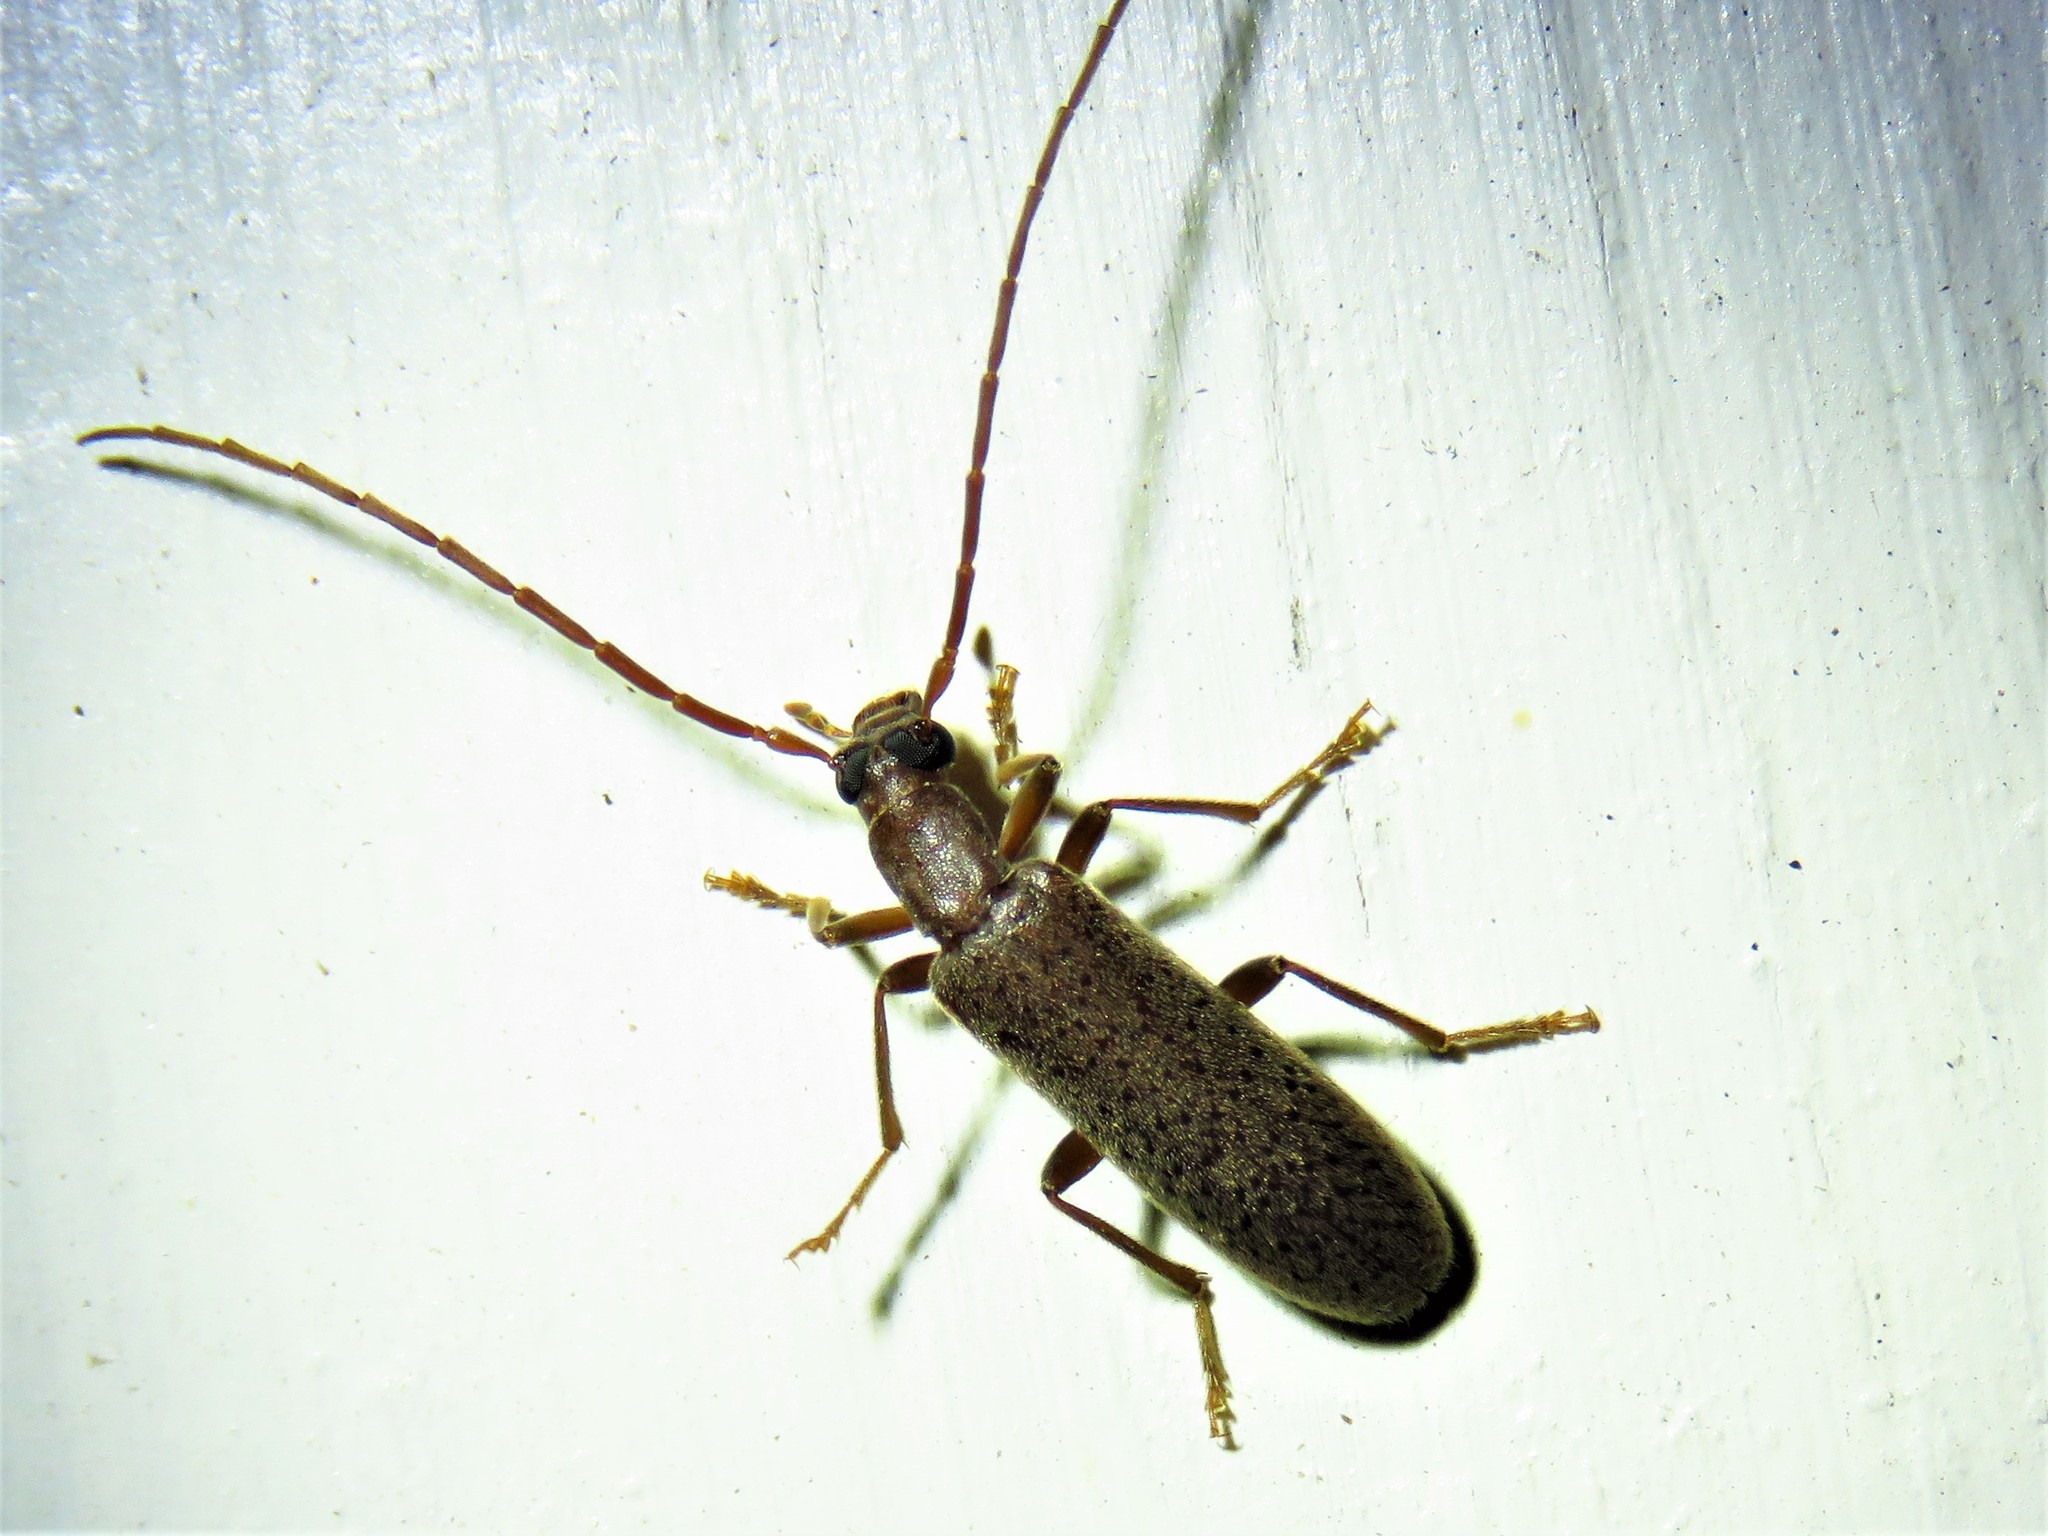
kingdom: Animalia
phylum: Arthropoda
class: Insecta
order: Coleoptera
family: Oedemeridae
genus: Sparedrus
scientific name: Sparedrus aspersus
